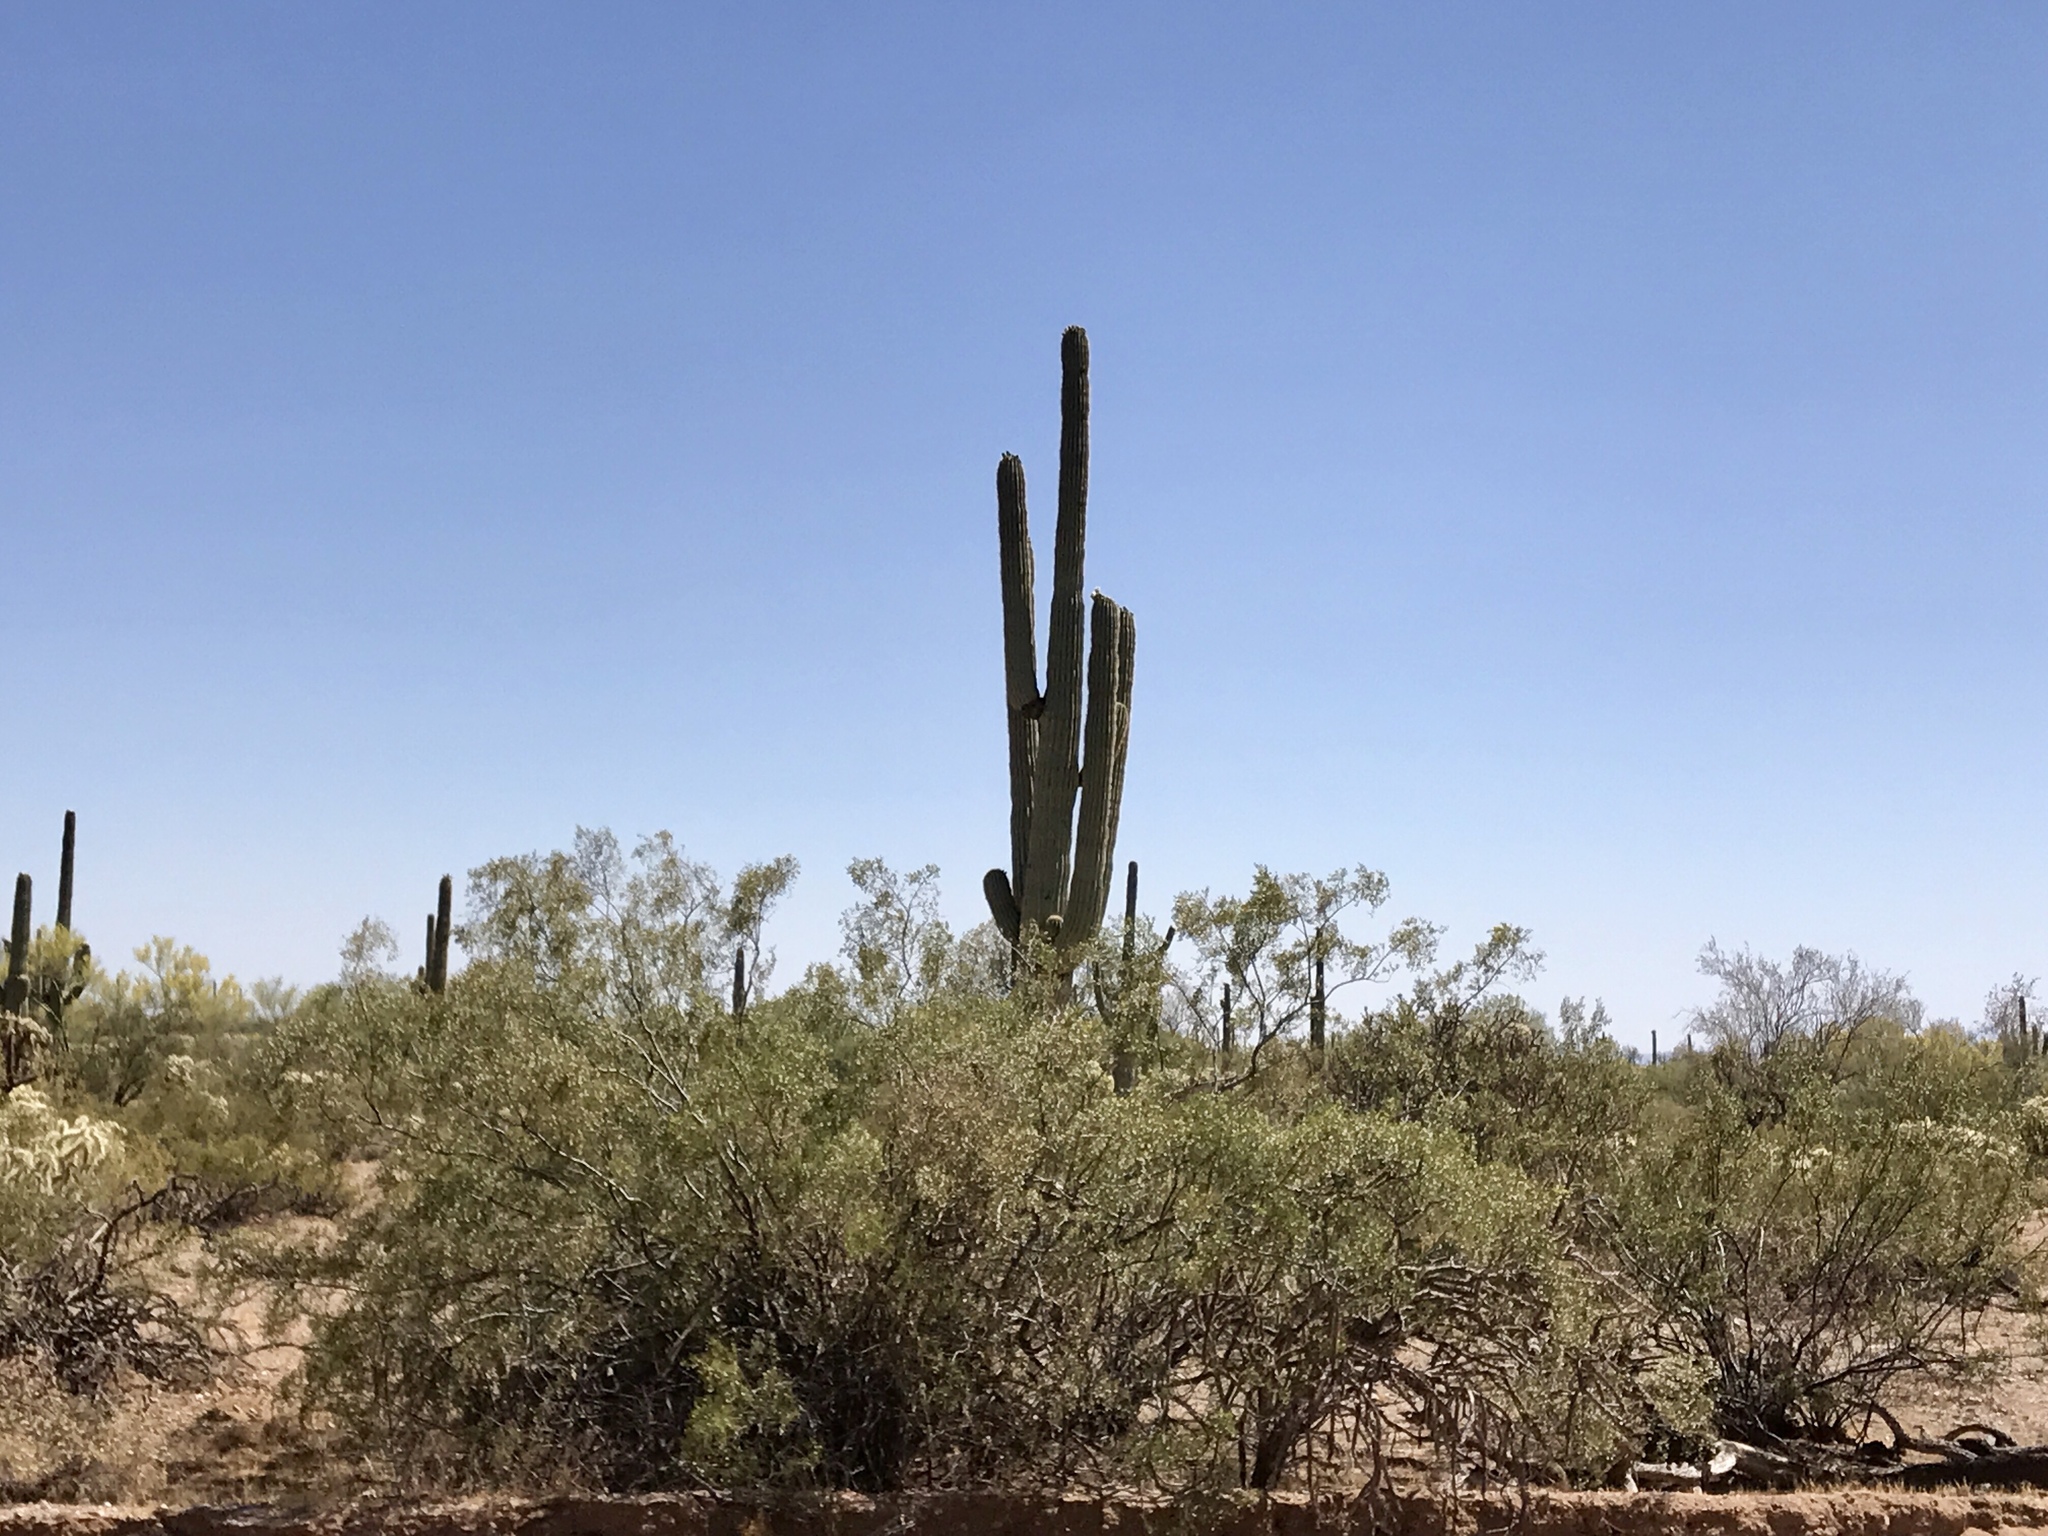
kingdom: Plantae
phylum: Tracheophyta
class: Magnoliopsida
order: Zygophyllales
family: Zygophyllaceae
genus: Larrea
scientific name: Larrea tridentata
